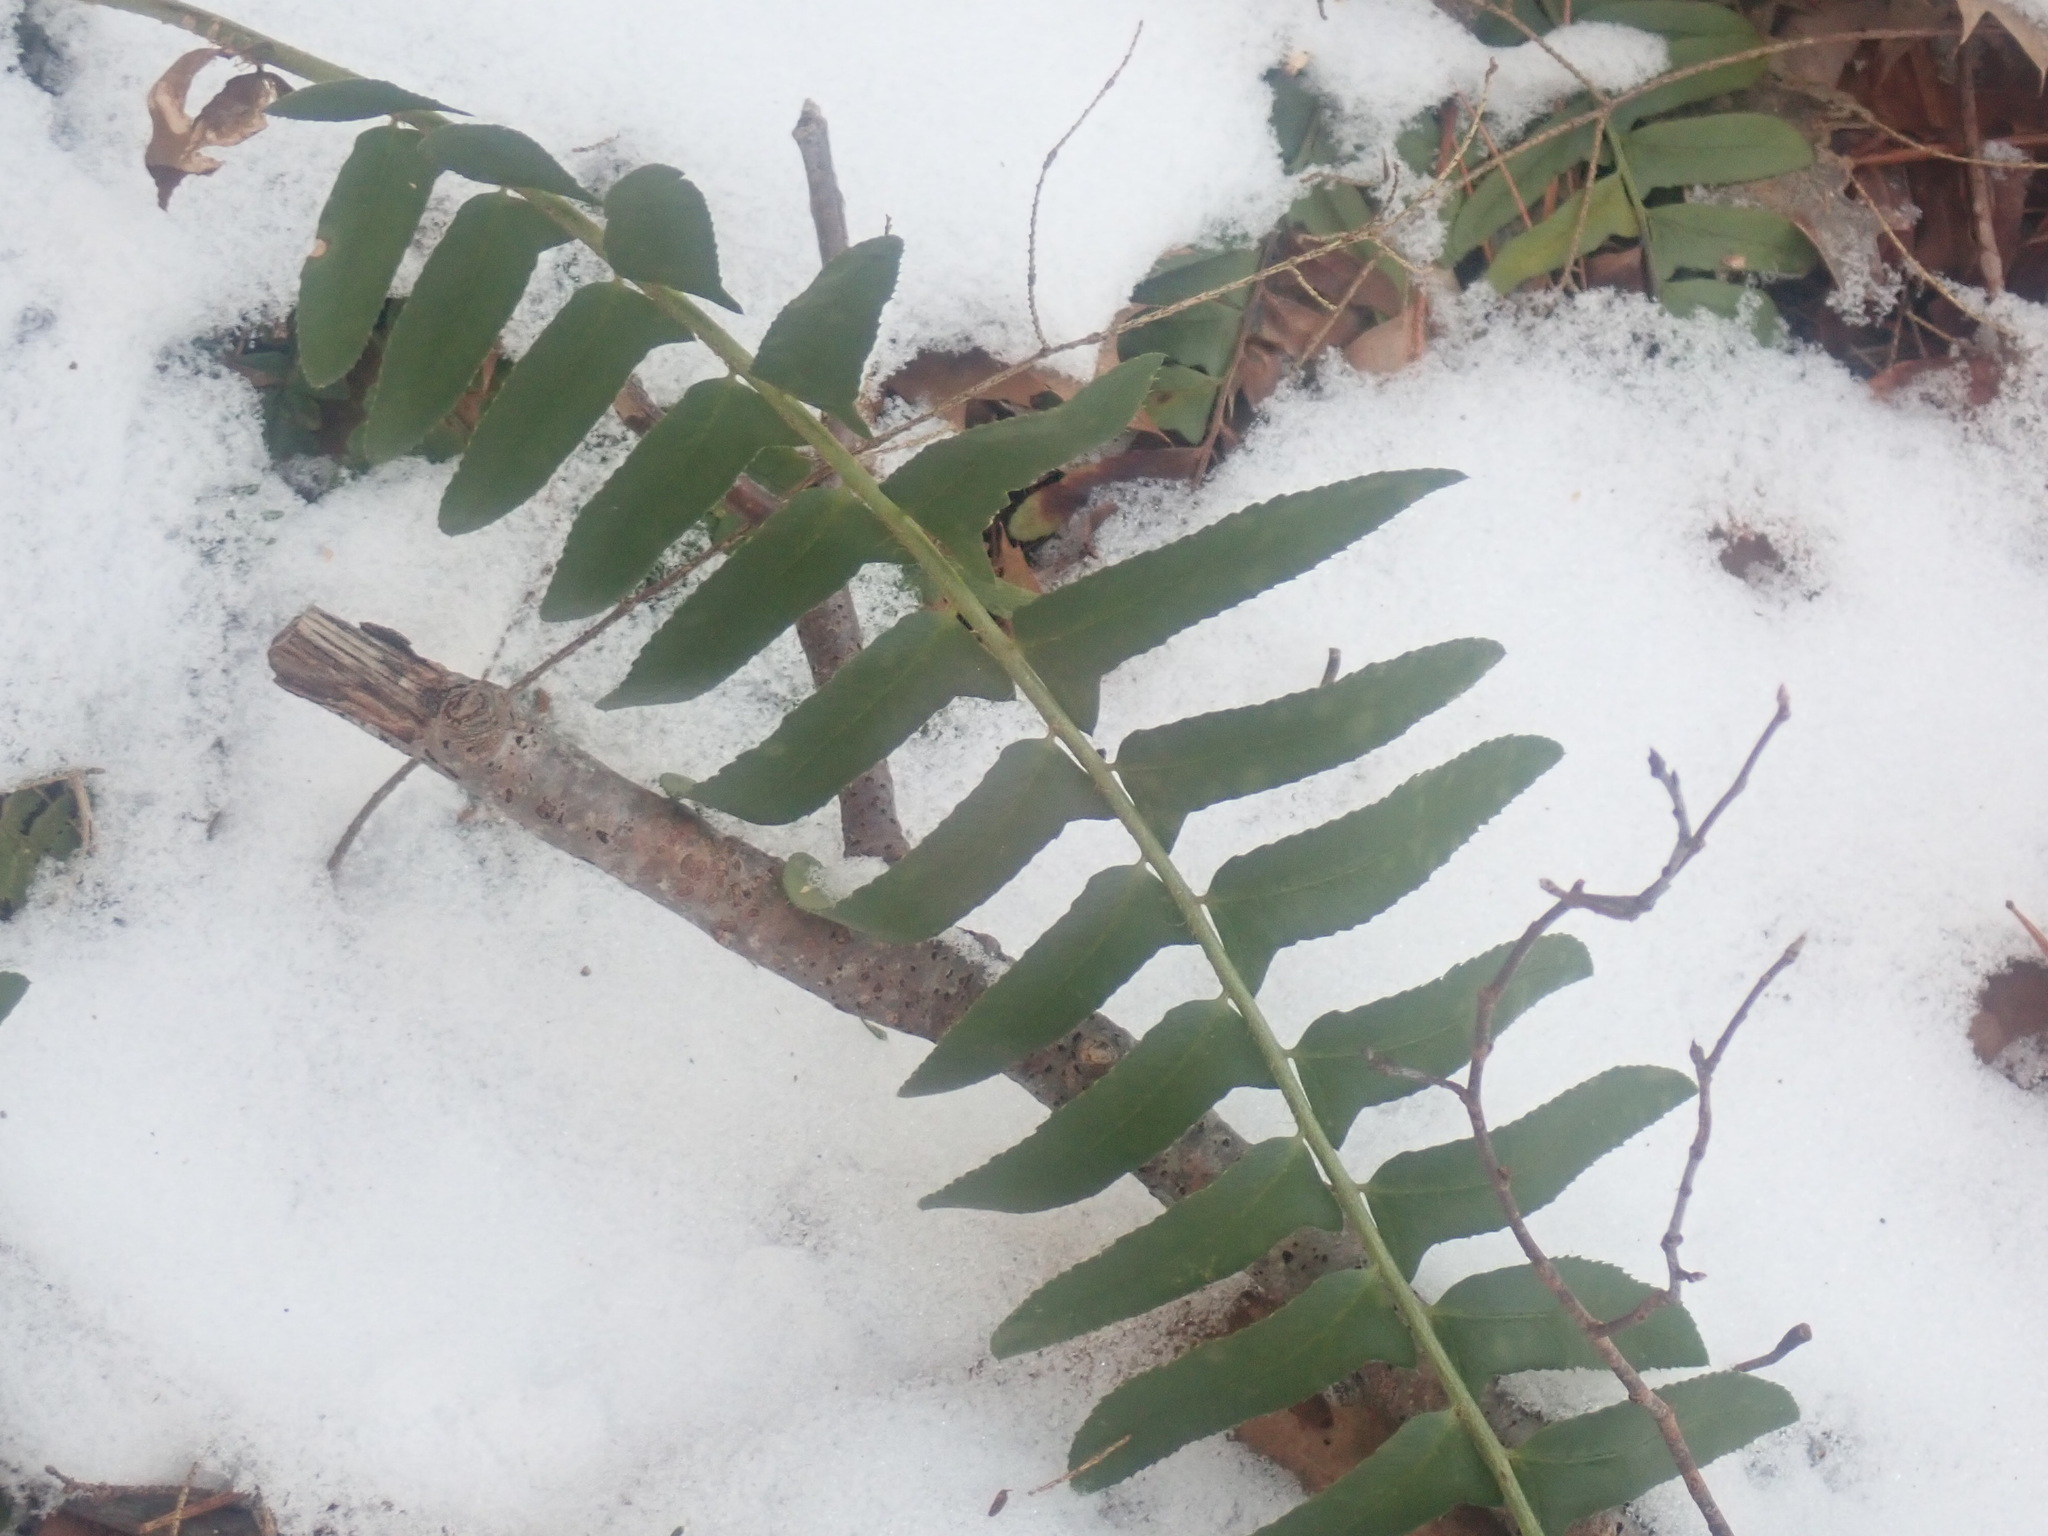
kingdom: Plantae
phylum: Tracheophyta
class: Polypodiopsida
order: Polypodiales
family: Dryopteridaceae
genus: Polystichum
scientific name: Polystichum acrostichoides
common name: Christmas fern
